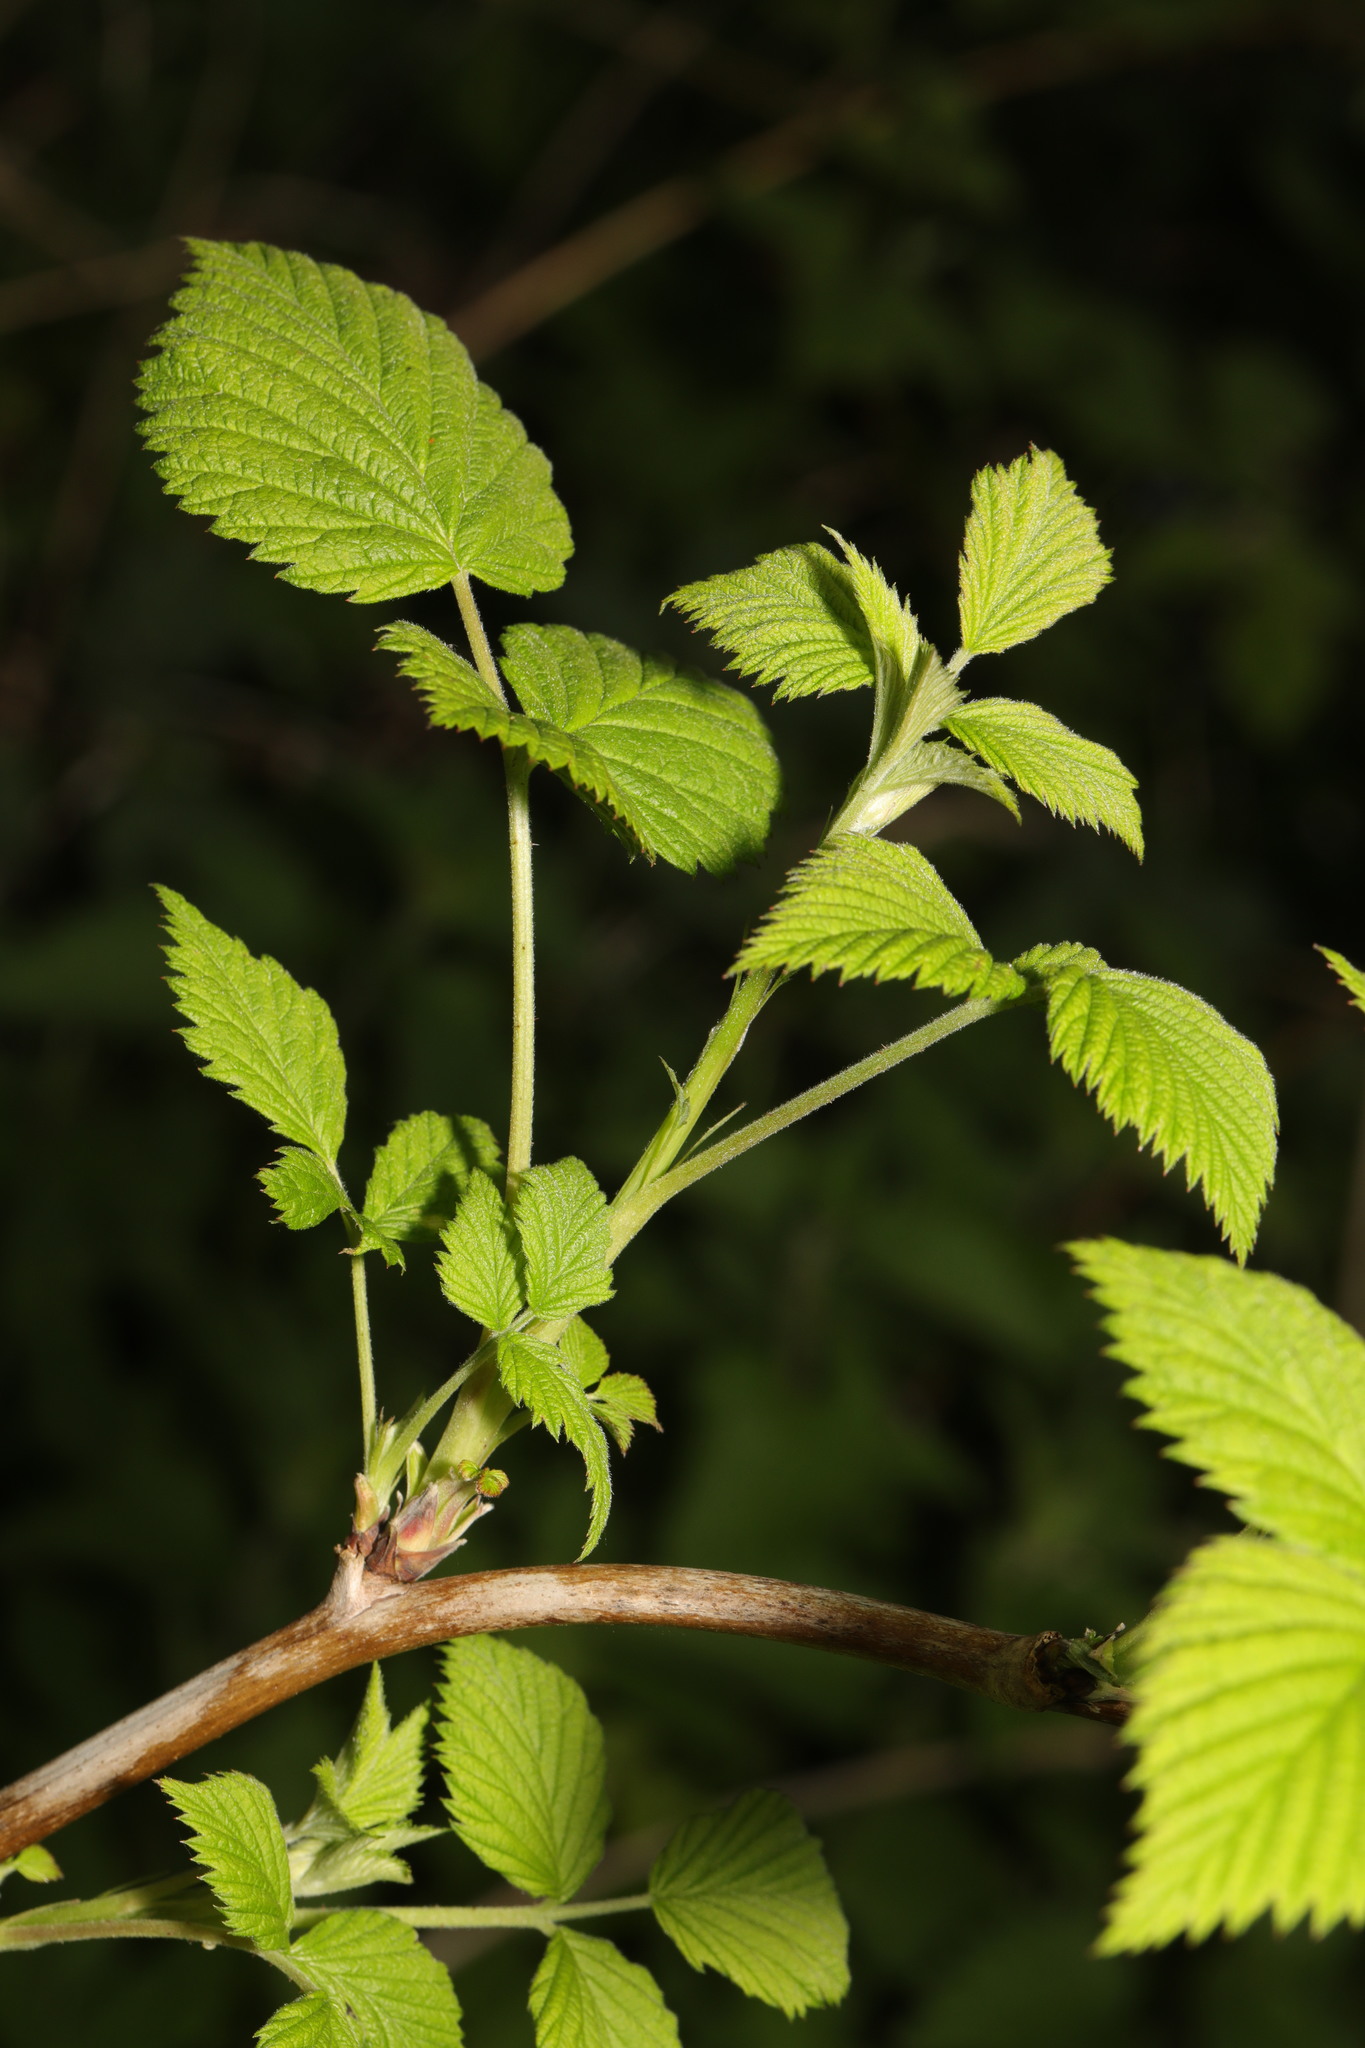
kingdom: Plantae
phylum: Tracheophyta
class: Magnoliopsida
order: Rosales
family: Rosaceae
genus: Rubus
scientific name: Rubus idaeus
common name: Raspberry
